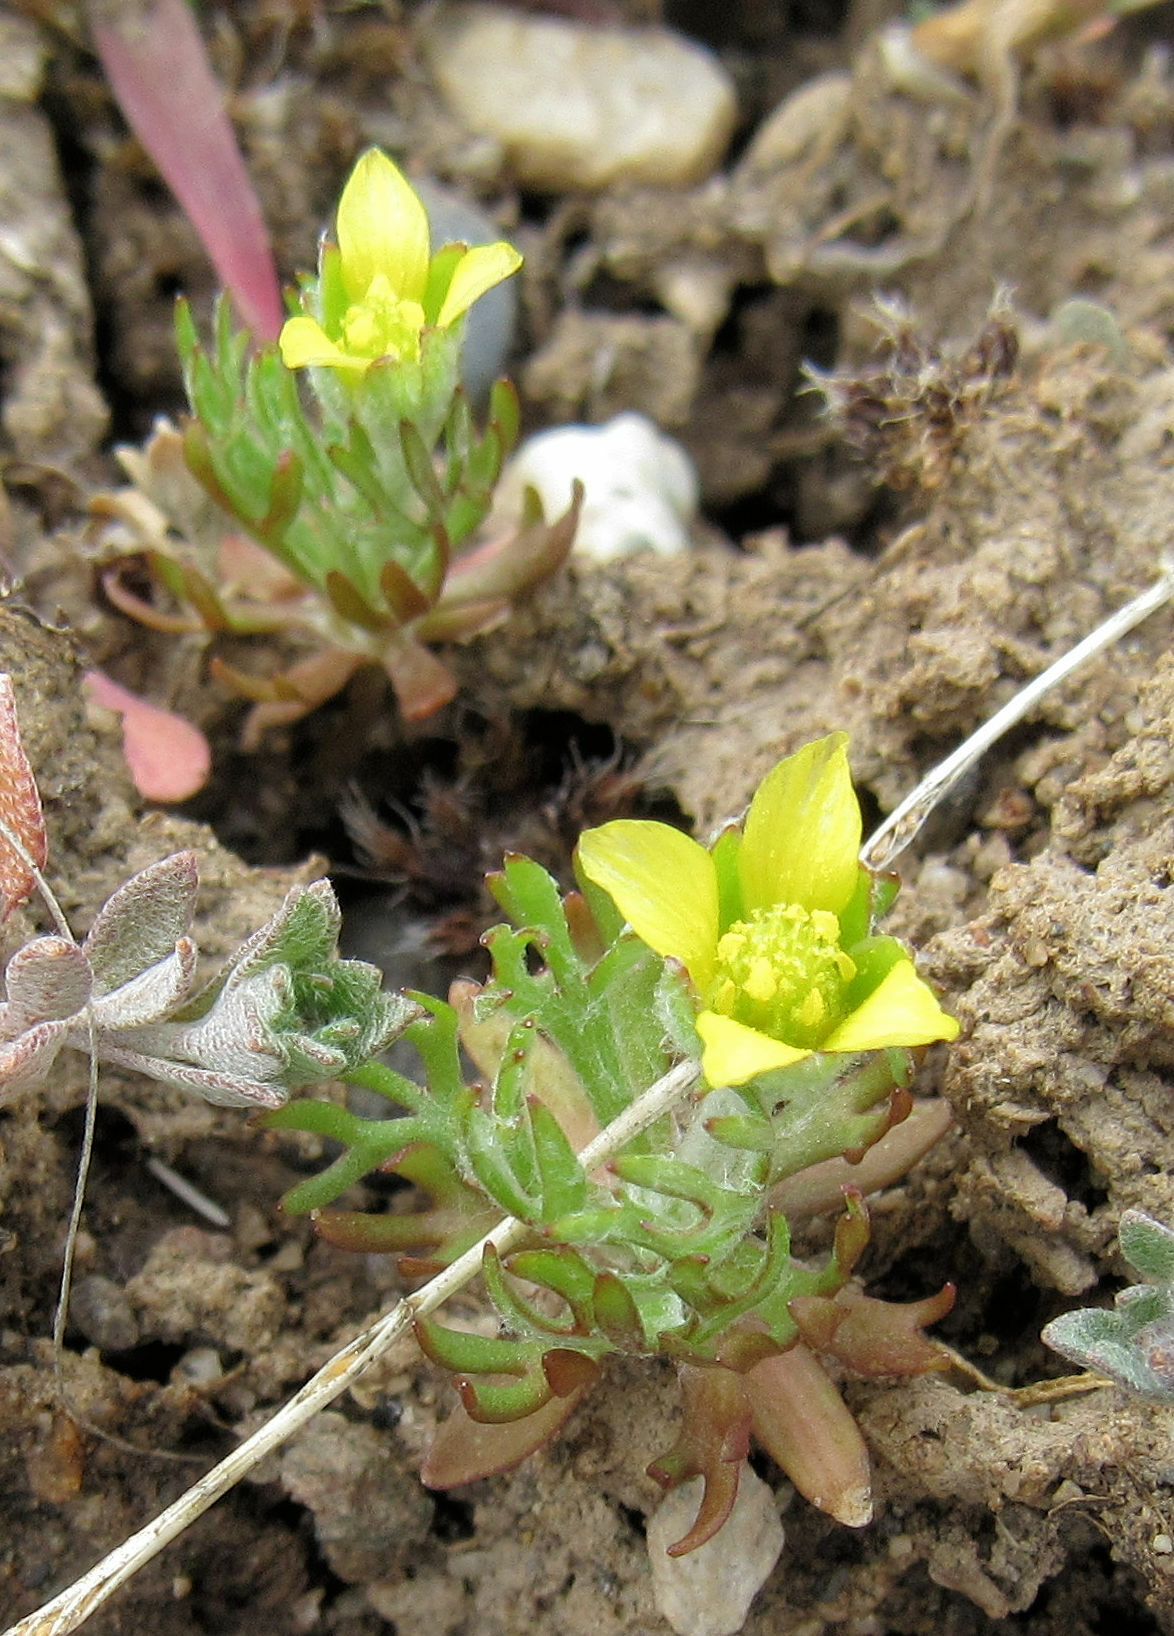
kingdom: Plantae
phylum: Tracheophyta
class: Magnoliopsida
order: Ranunculales
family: Ranunculaceae
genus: Ceratocephala
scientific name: Ceratocephala orthoceras
